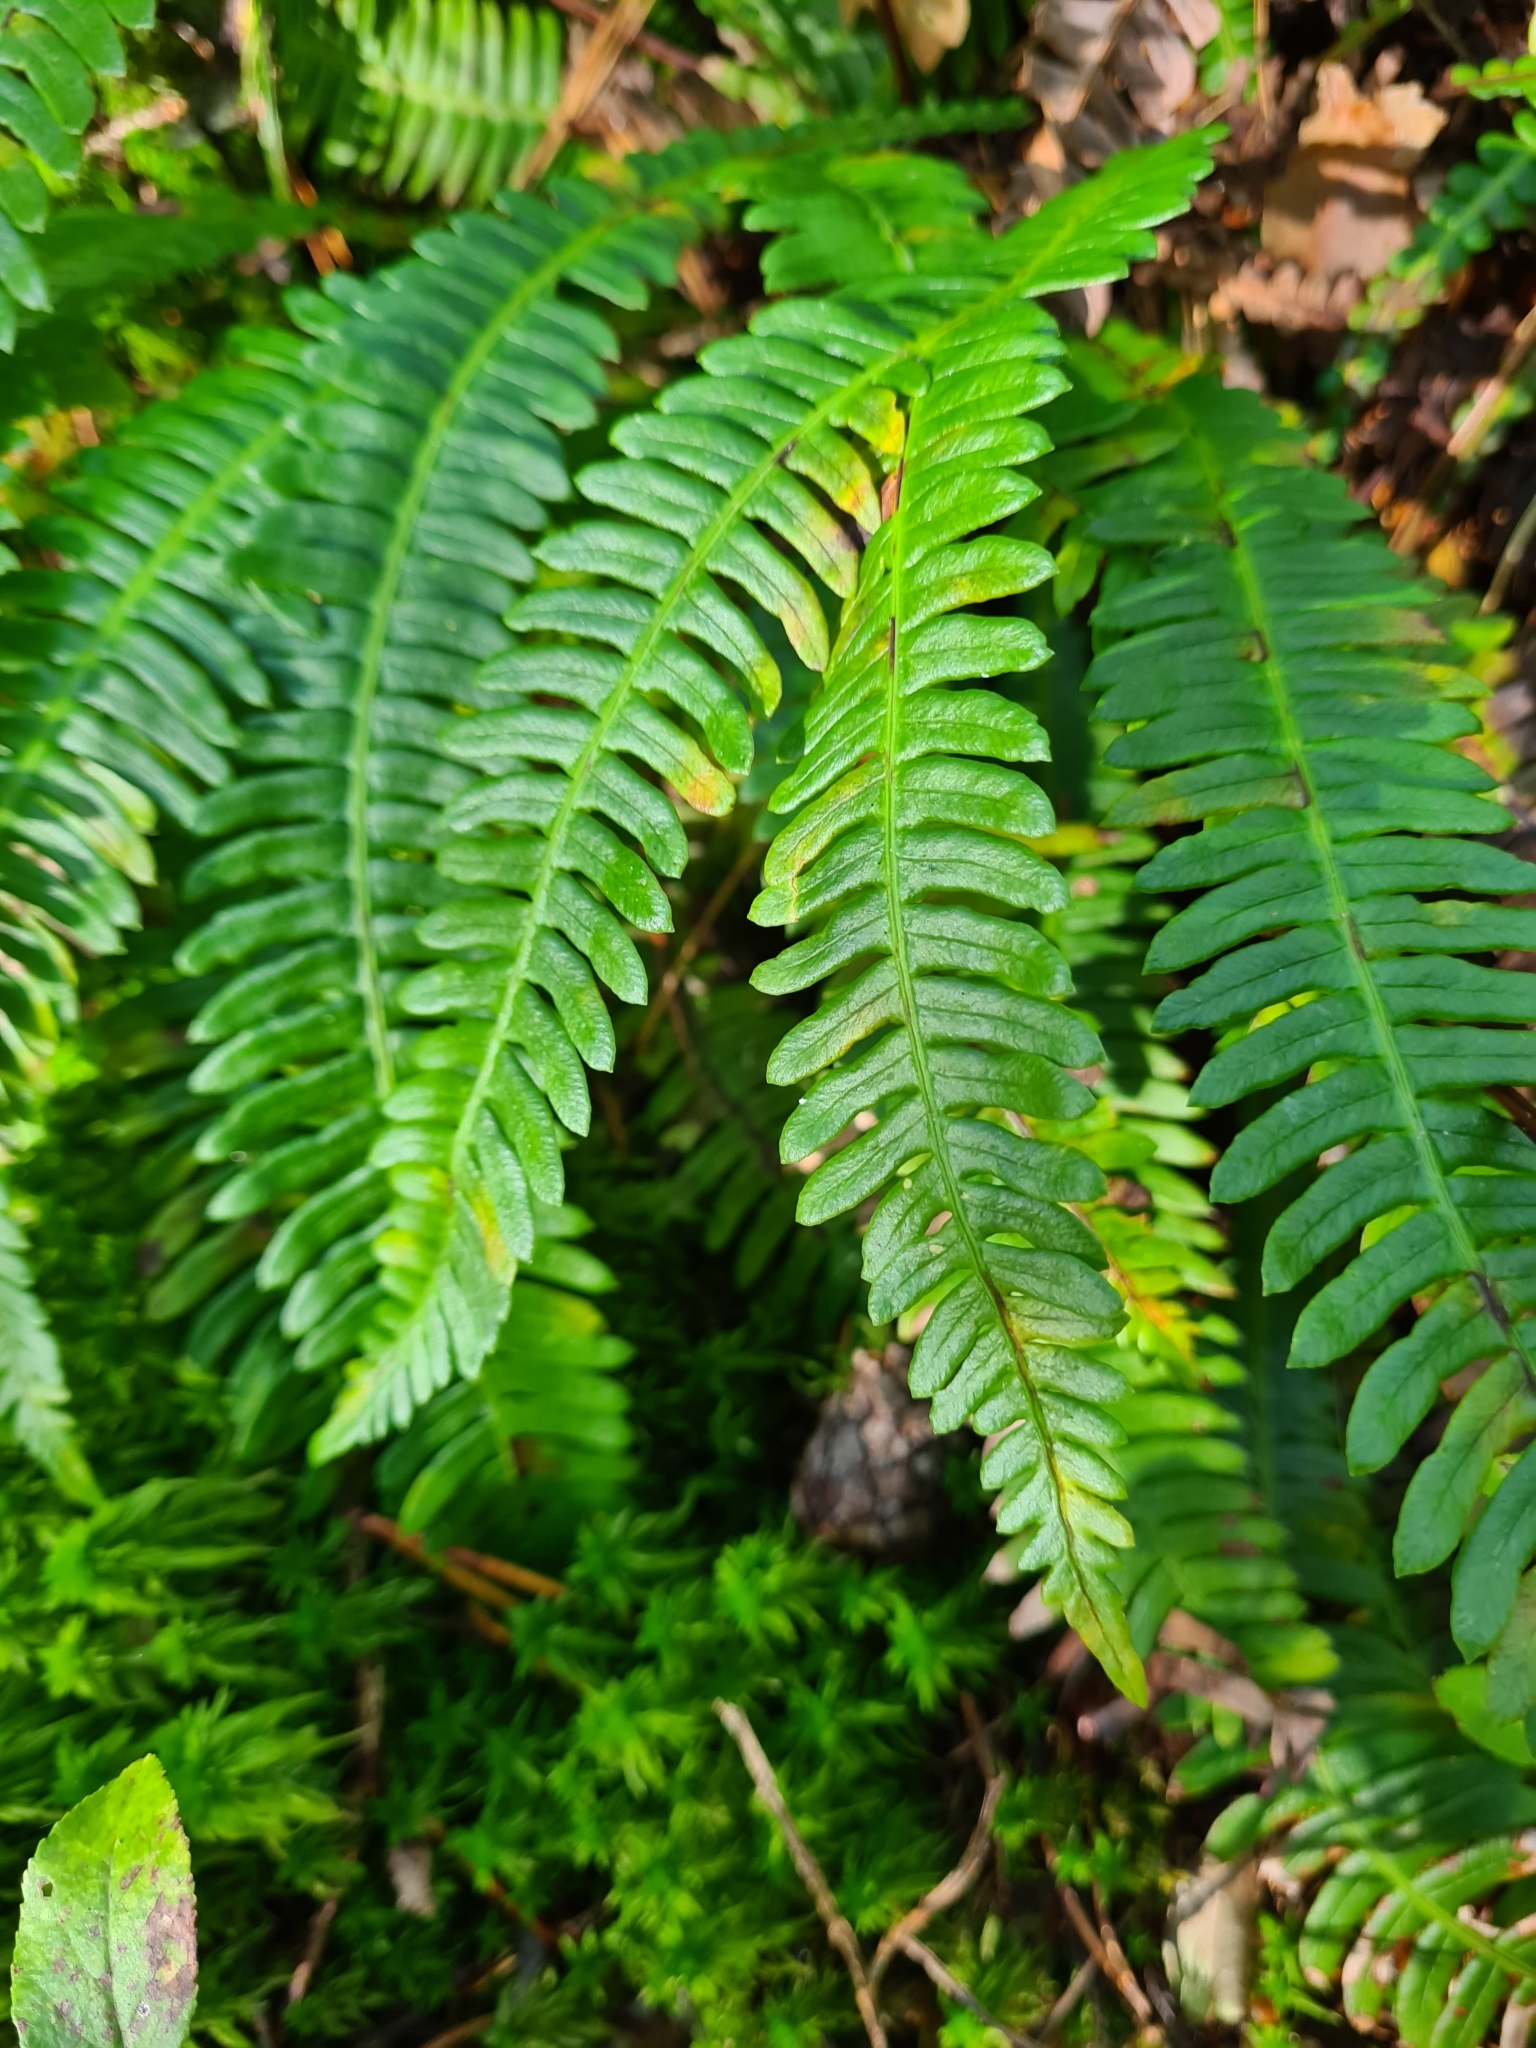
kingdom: Plantae
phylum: Tracheophyta
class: Polypodiopsida
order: Polypodiales
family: Blechnaceae
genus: Struthiopteris
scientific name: Struthiopteris spicant
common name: Deer fern
